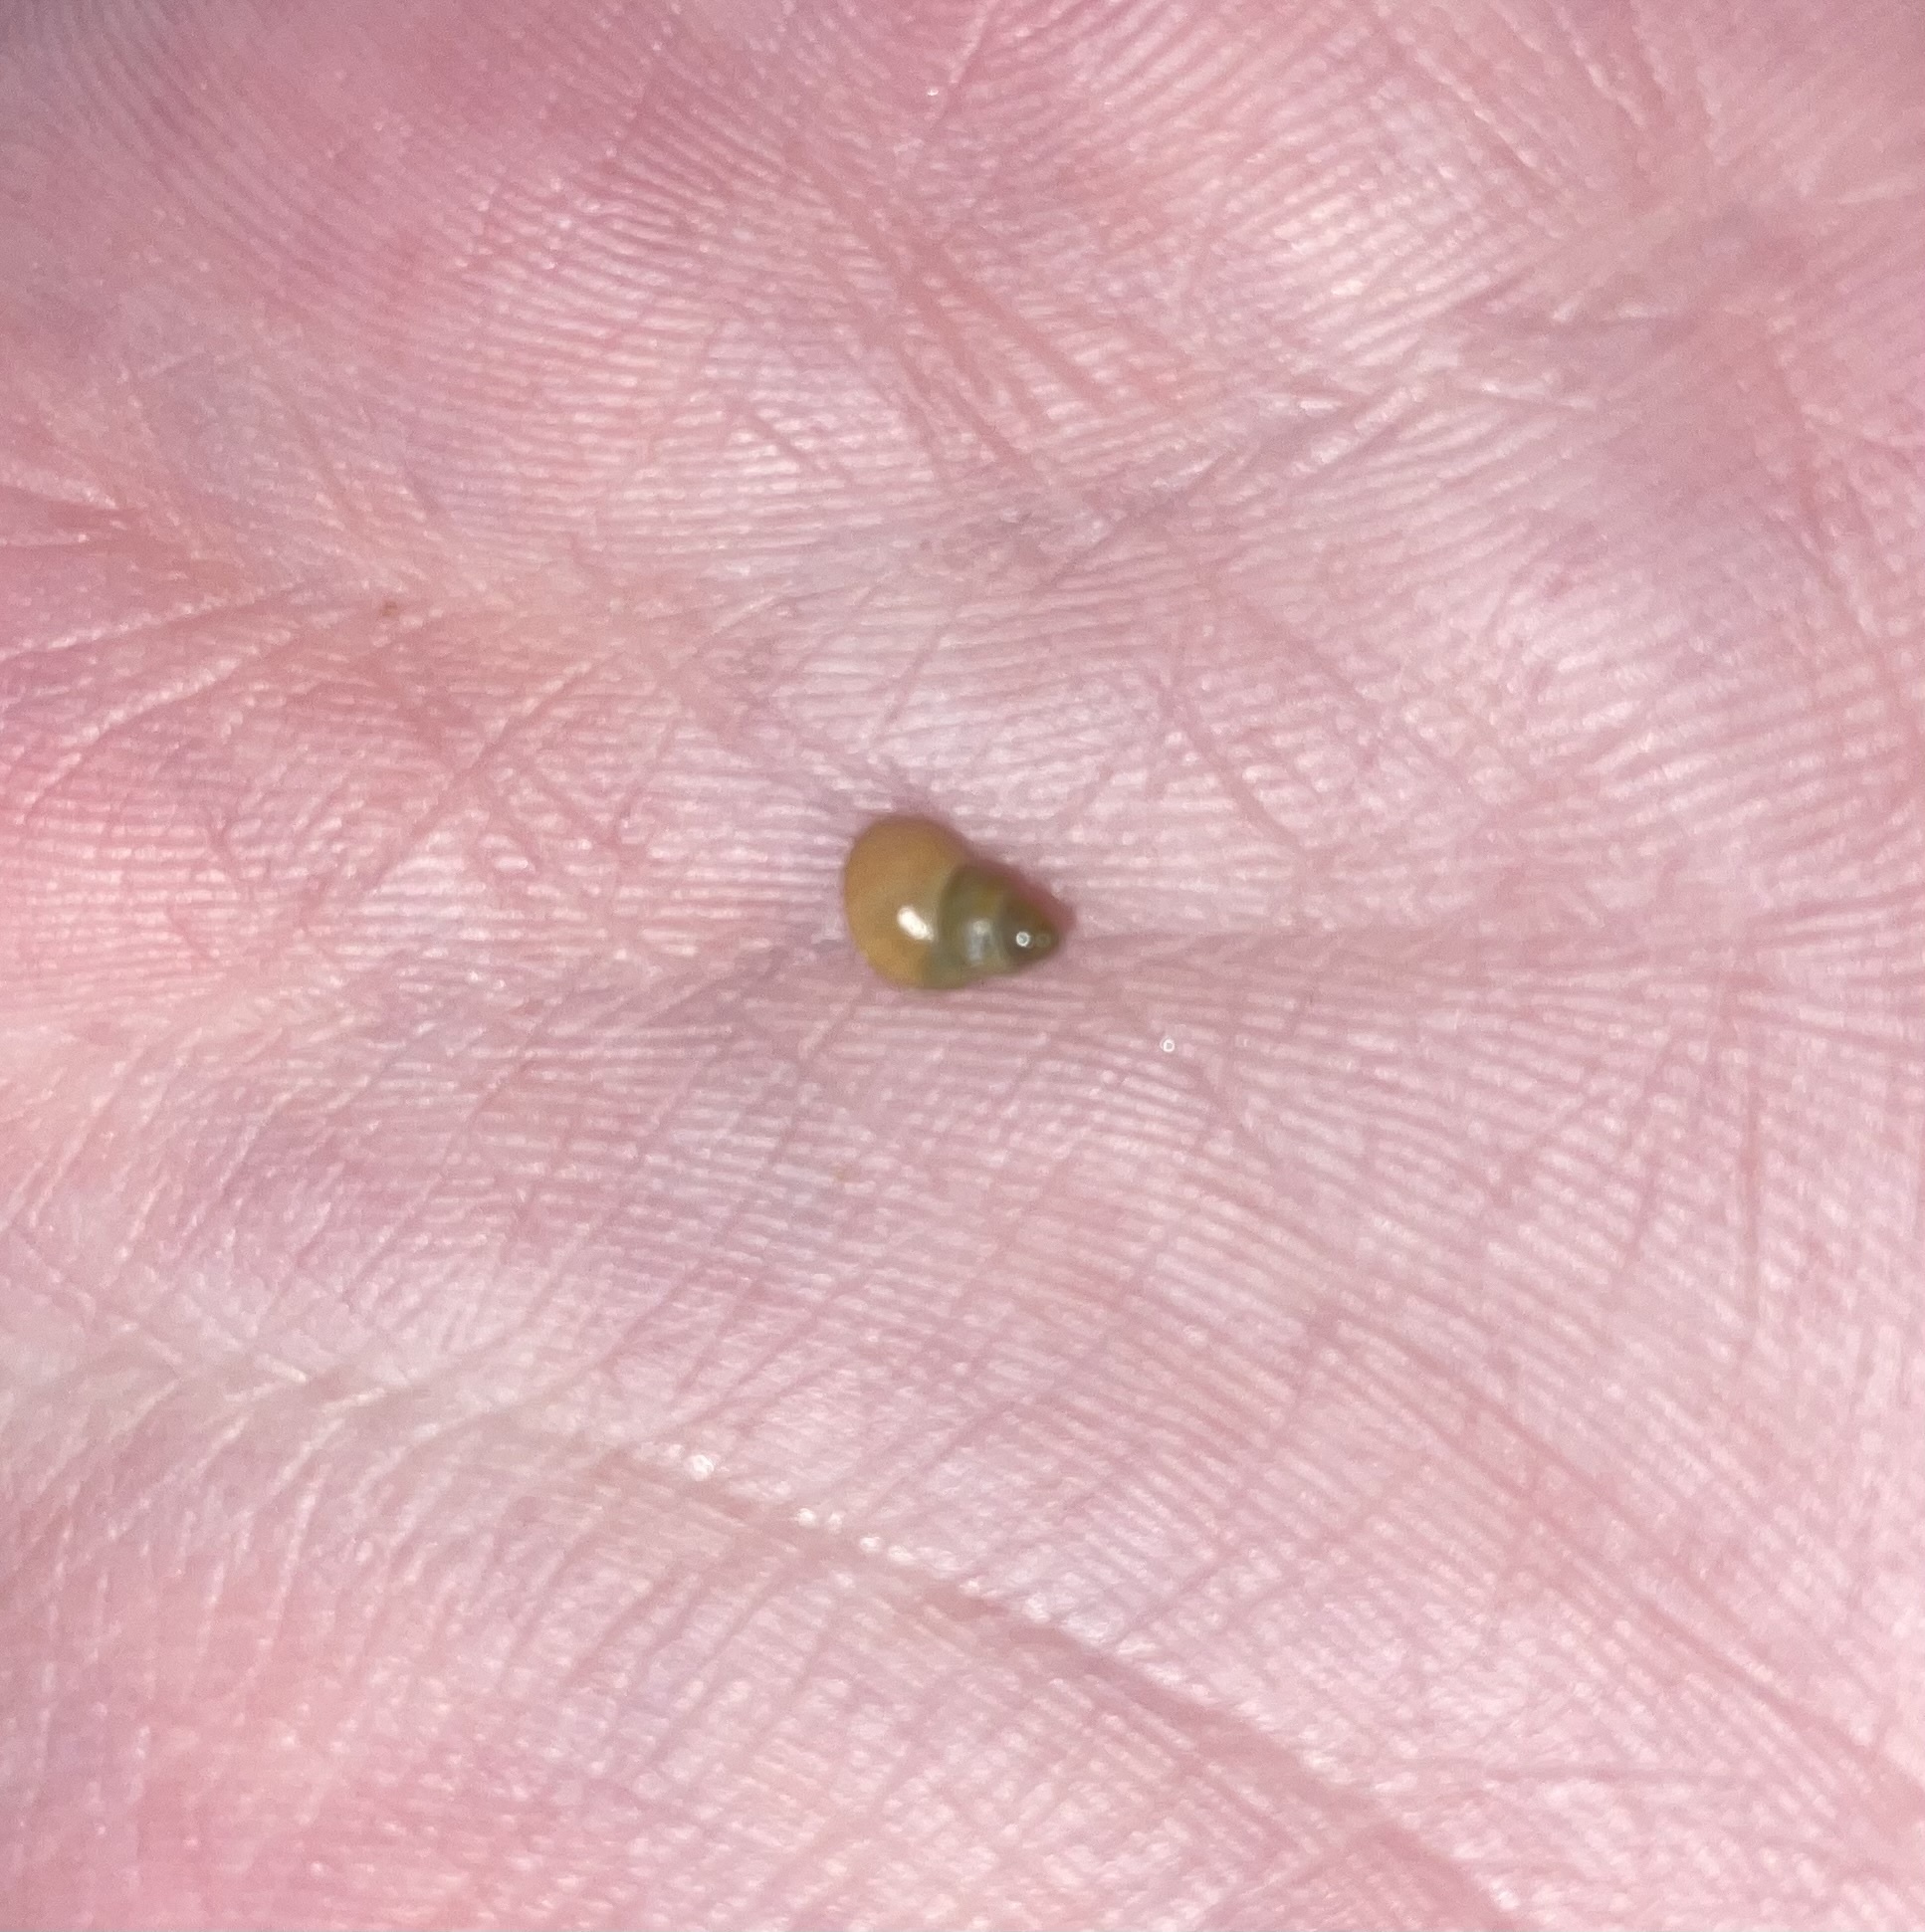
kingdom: Animalia
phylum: Mollusca
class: Gastropoda
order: Littorinimorpha
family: Littorinidae
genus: Lacuna
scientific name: Lacuna vincta
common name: Banded chink shell
